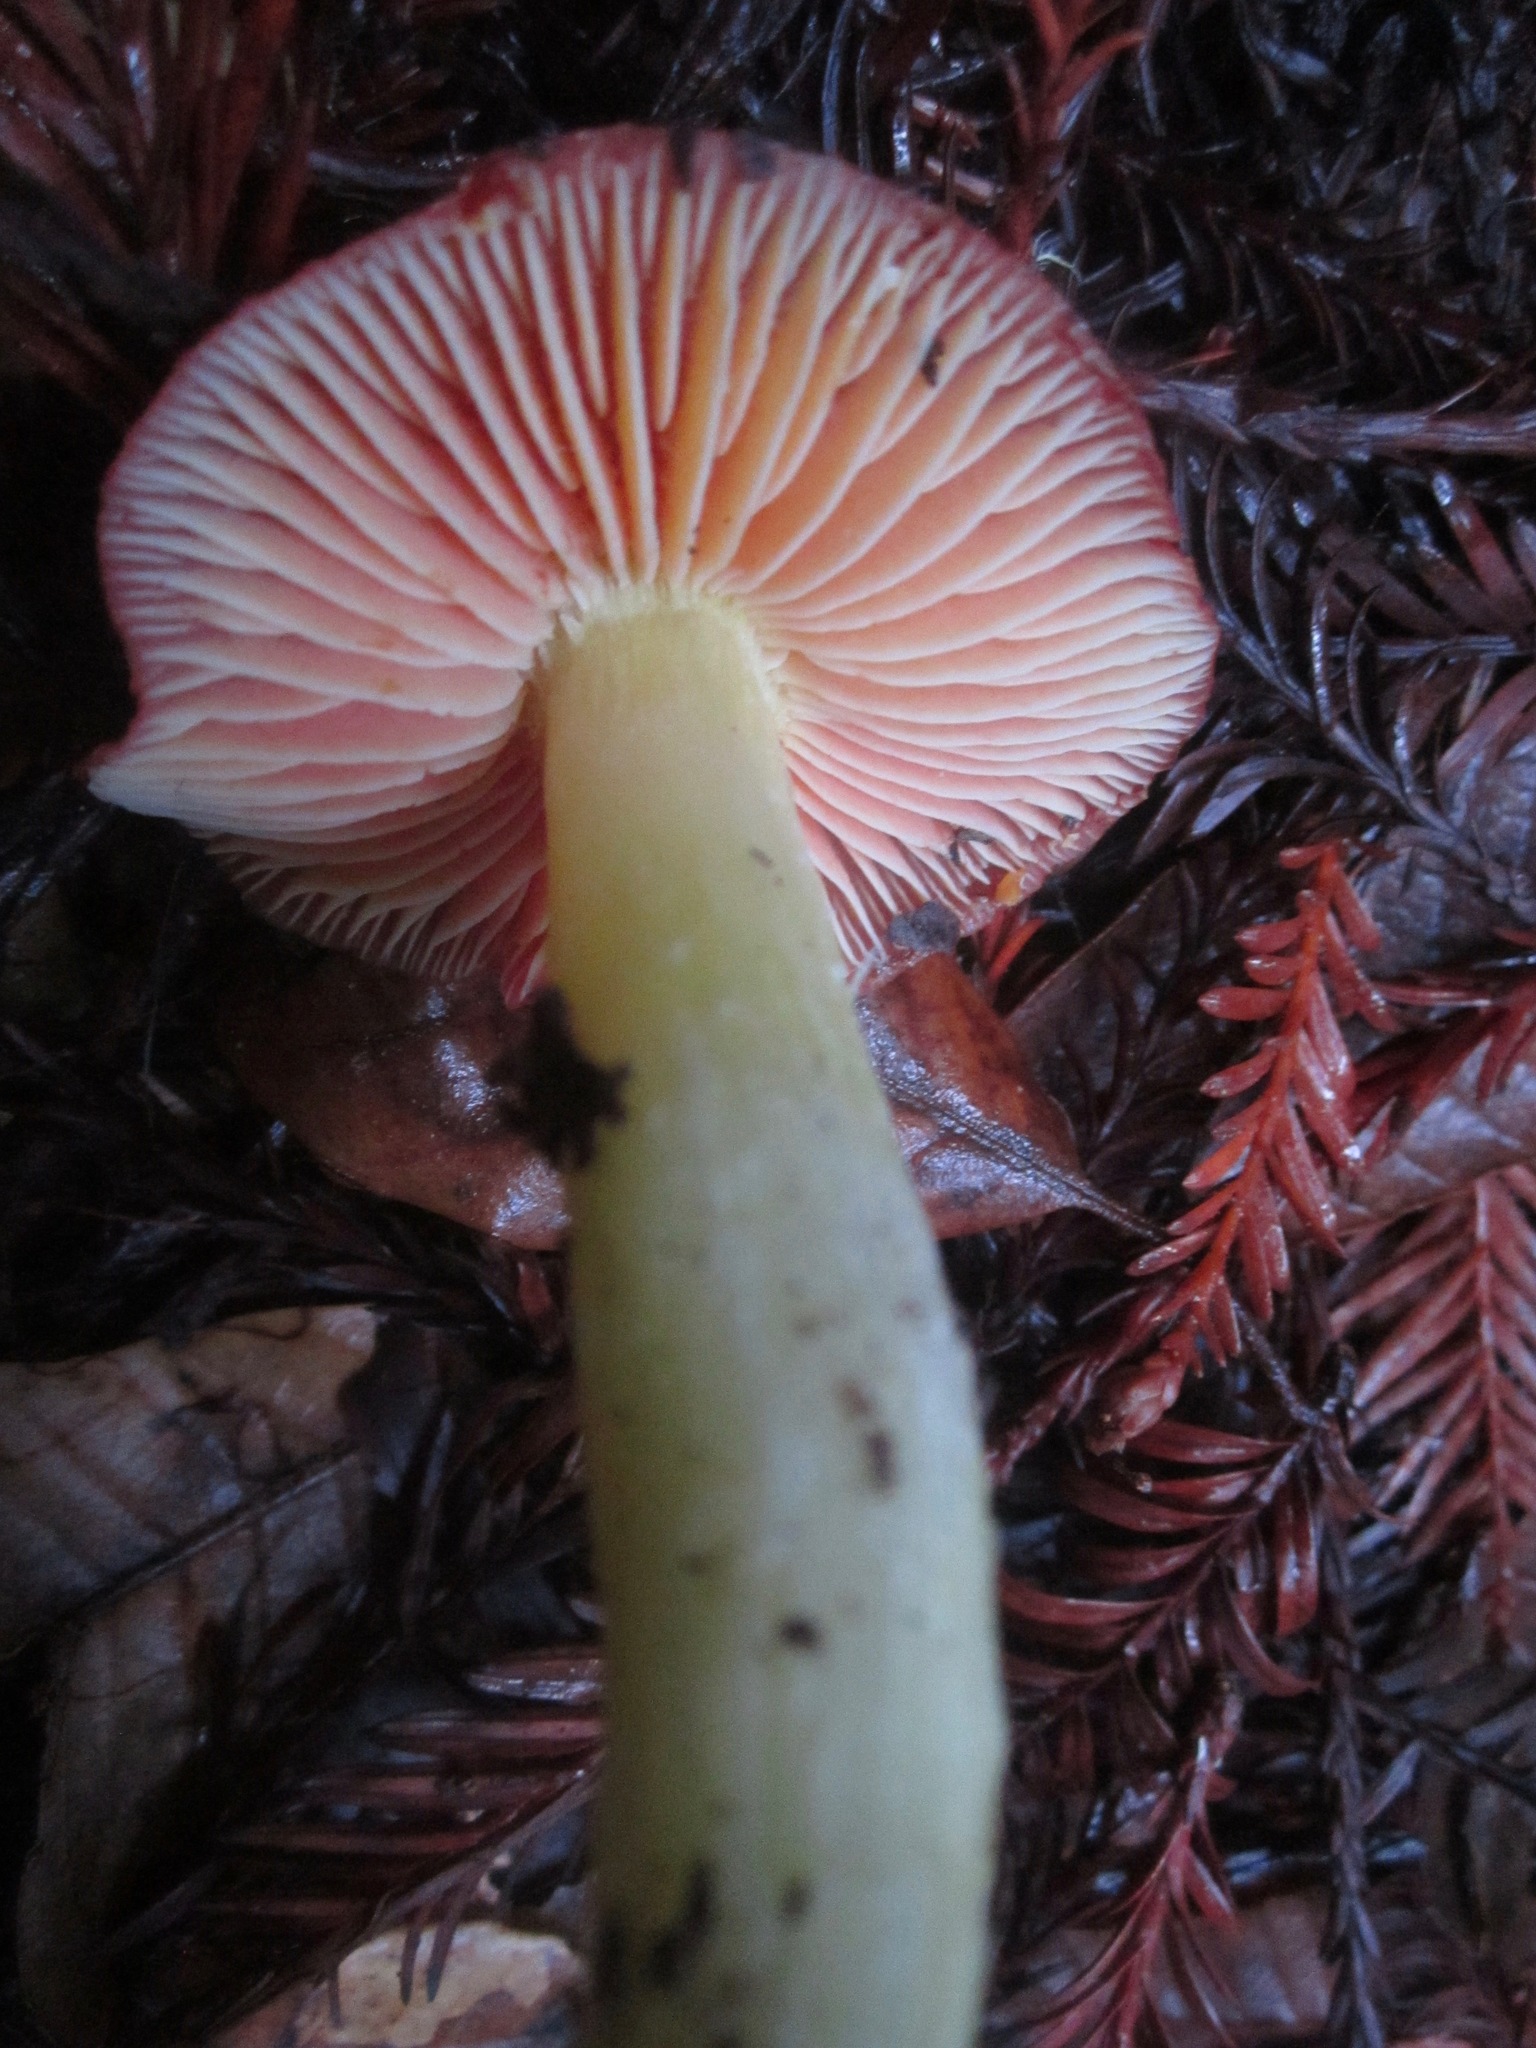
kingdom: Fungi
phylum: Basidiomycota
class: Agaricomycetes
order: Agaricales
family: Hygrophoraceae
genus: Hygrocybe
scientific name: Hygrocybe laetissima
